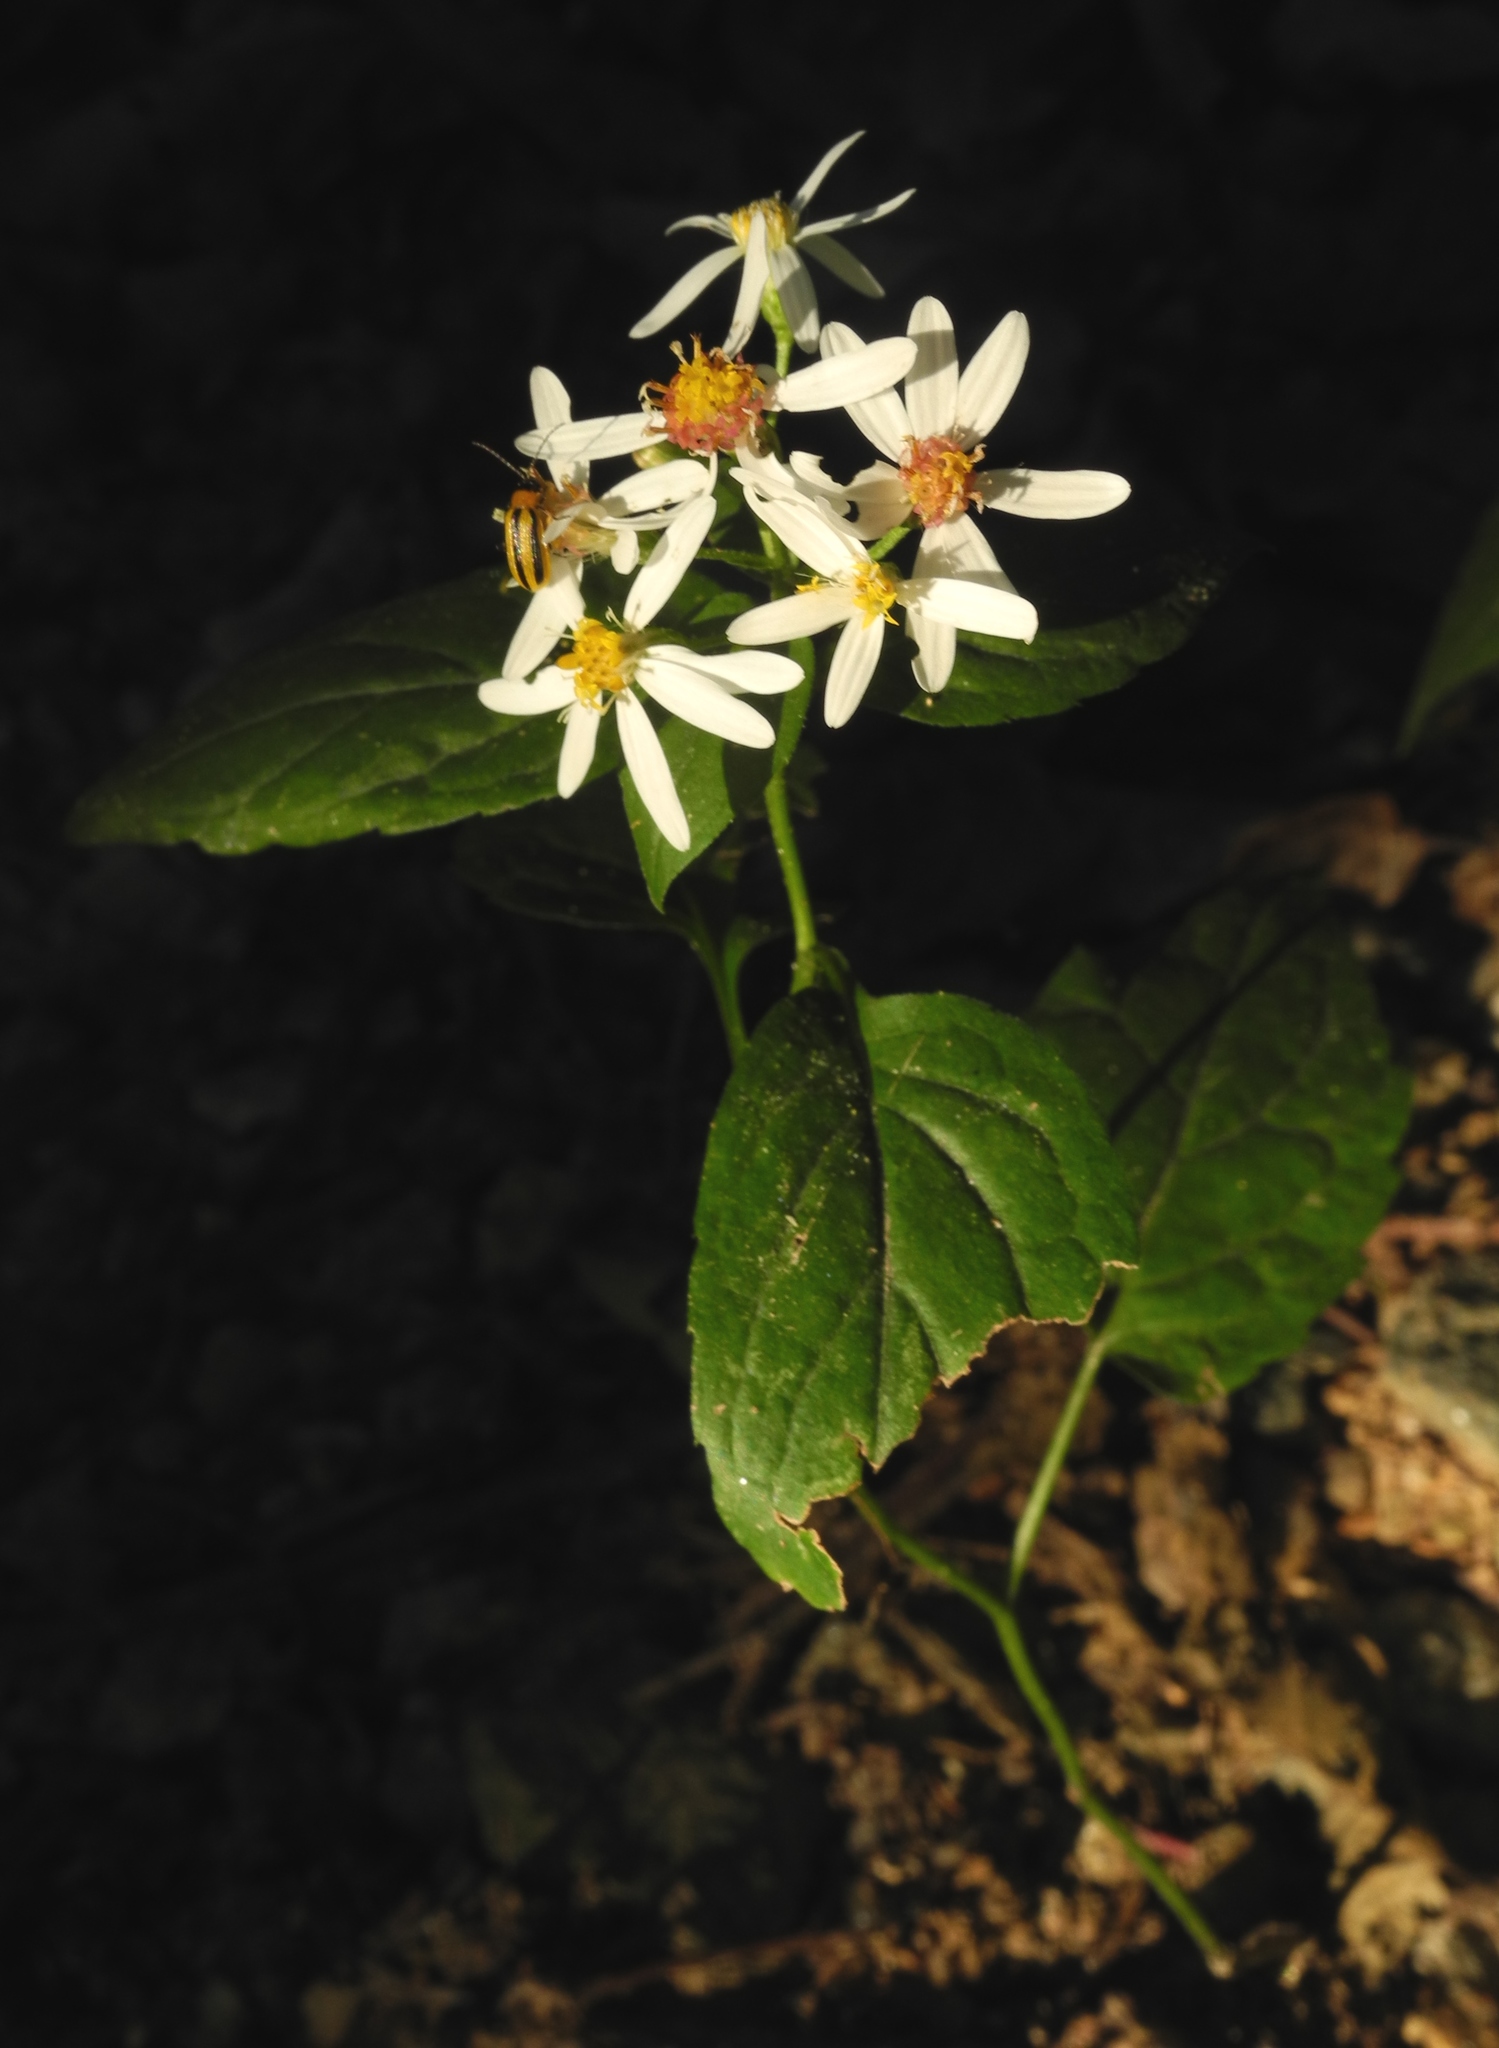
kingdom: Plantae
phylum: Tracheophyta
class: Magnoliopsida
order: Asterales
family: Asteraceae
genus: Eurybia
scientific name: Eurybia divaricata
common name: White wood aster
